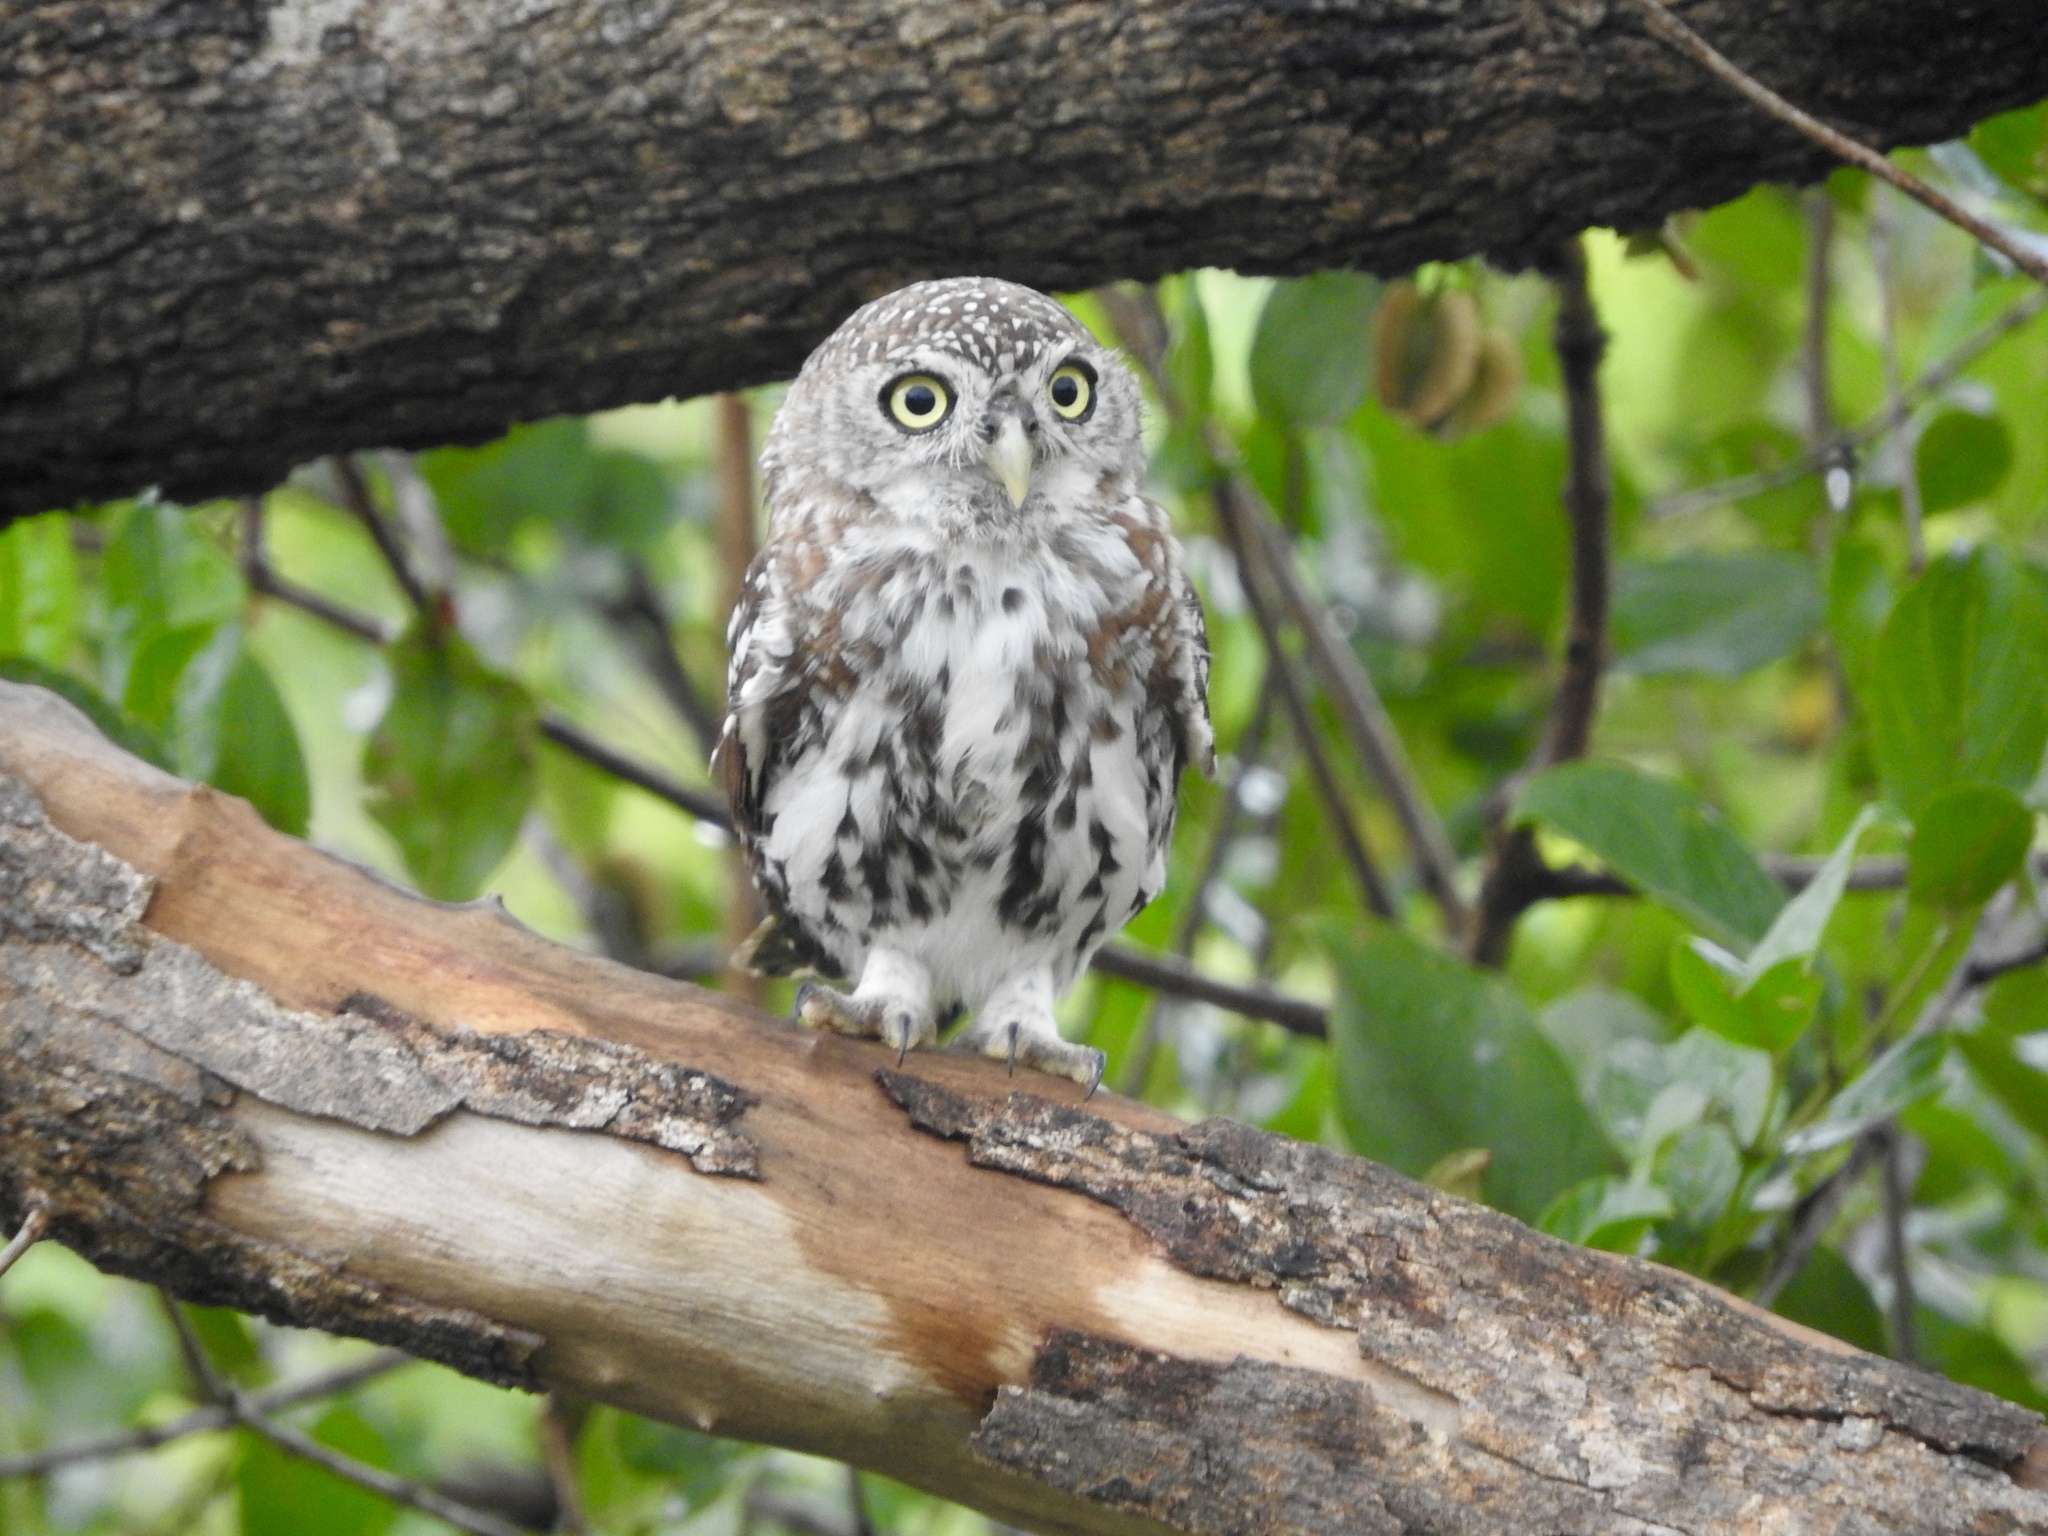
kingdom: Animalia
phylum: Chordata
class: Aves
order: Strigiformes
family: Strigidae
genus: Glaucidium
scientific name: Glaucidium perlatum
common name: Pearl-spotted owlet
